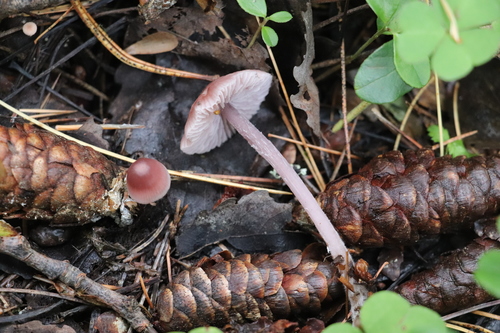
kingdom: Fungi
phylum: Basidiomycota
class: Agaricomycetes
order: Agaricales
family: Mycenaceae
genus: Mycena
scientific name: Mycena pura
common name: Lilac bonnet
